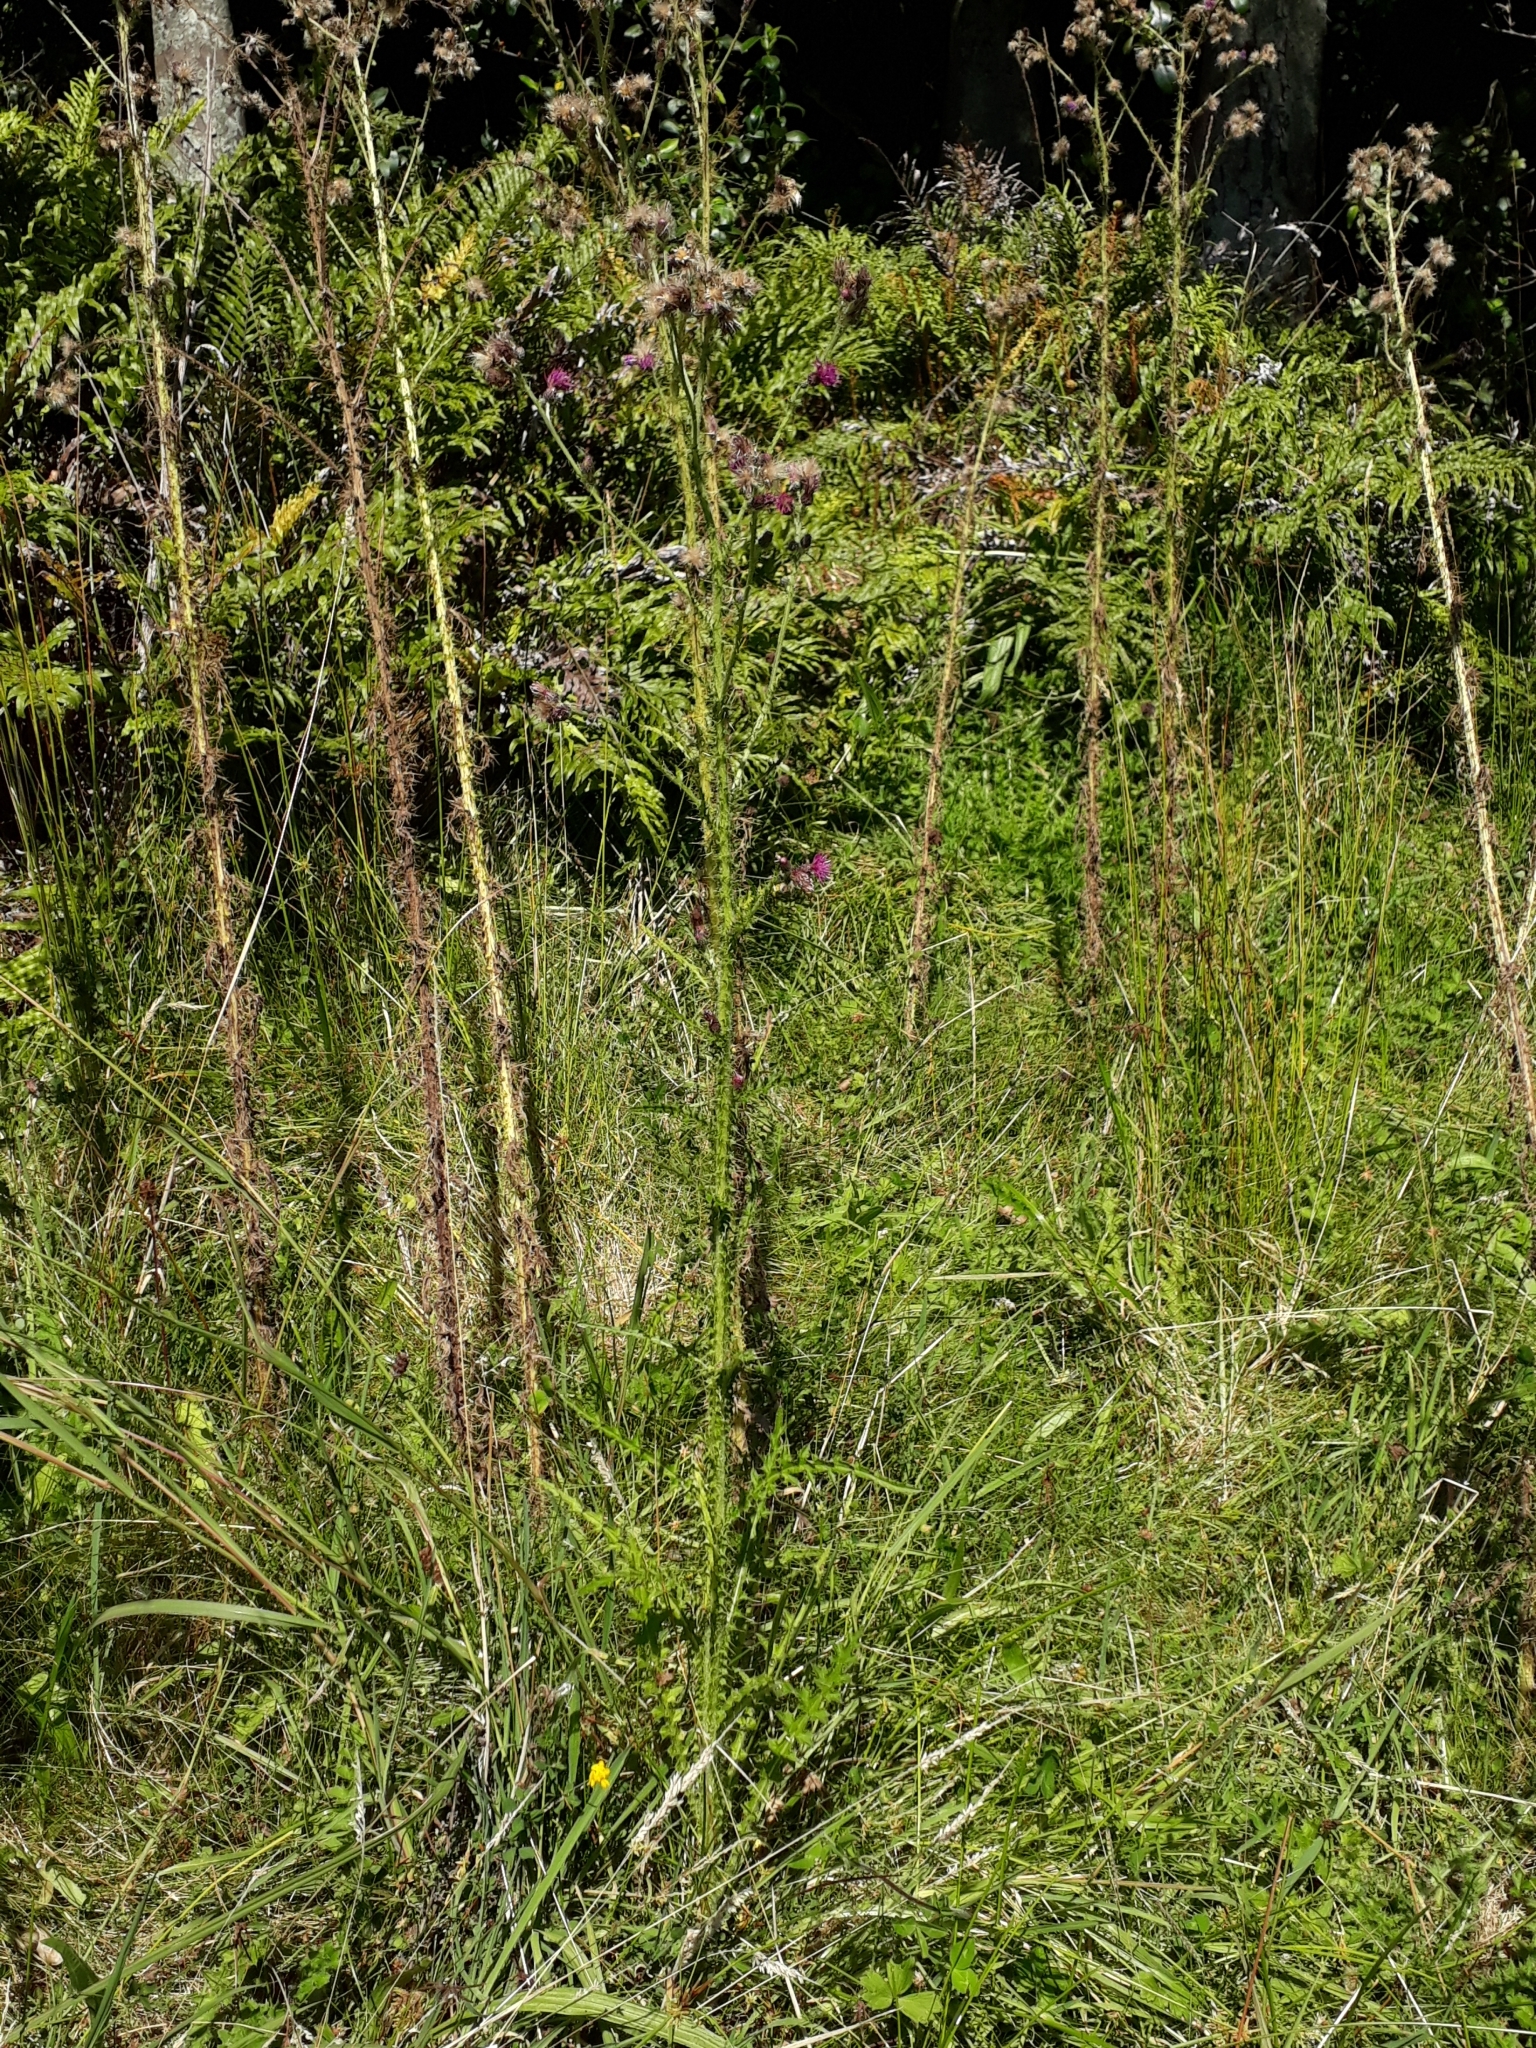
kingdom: Plantae
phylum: Tracheophyta
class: Magnoliopsida
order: Asterales
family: Asteraceae
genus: Cirsium
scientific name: Cirsium palustre
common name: Marsh thistle
